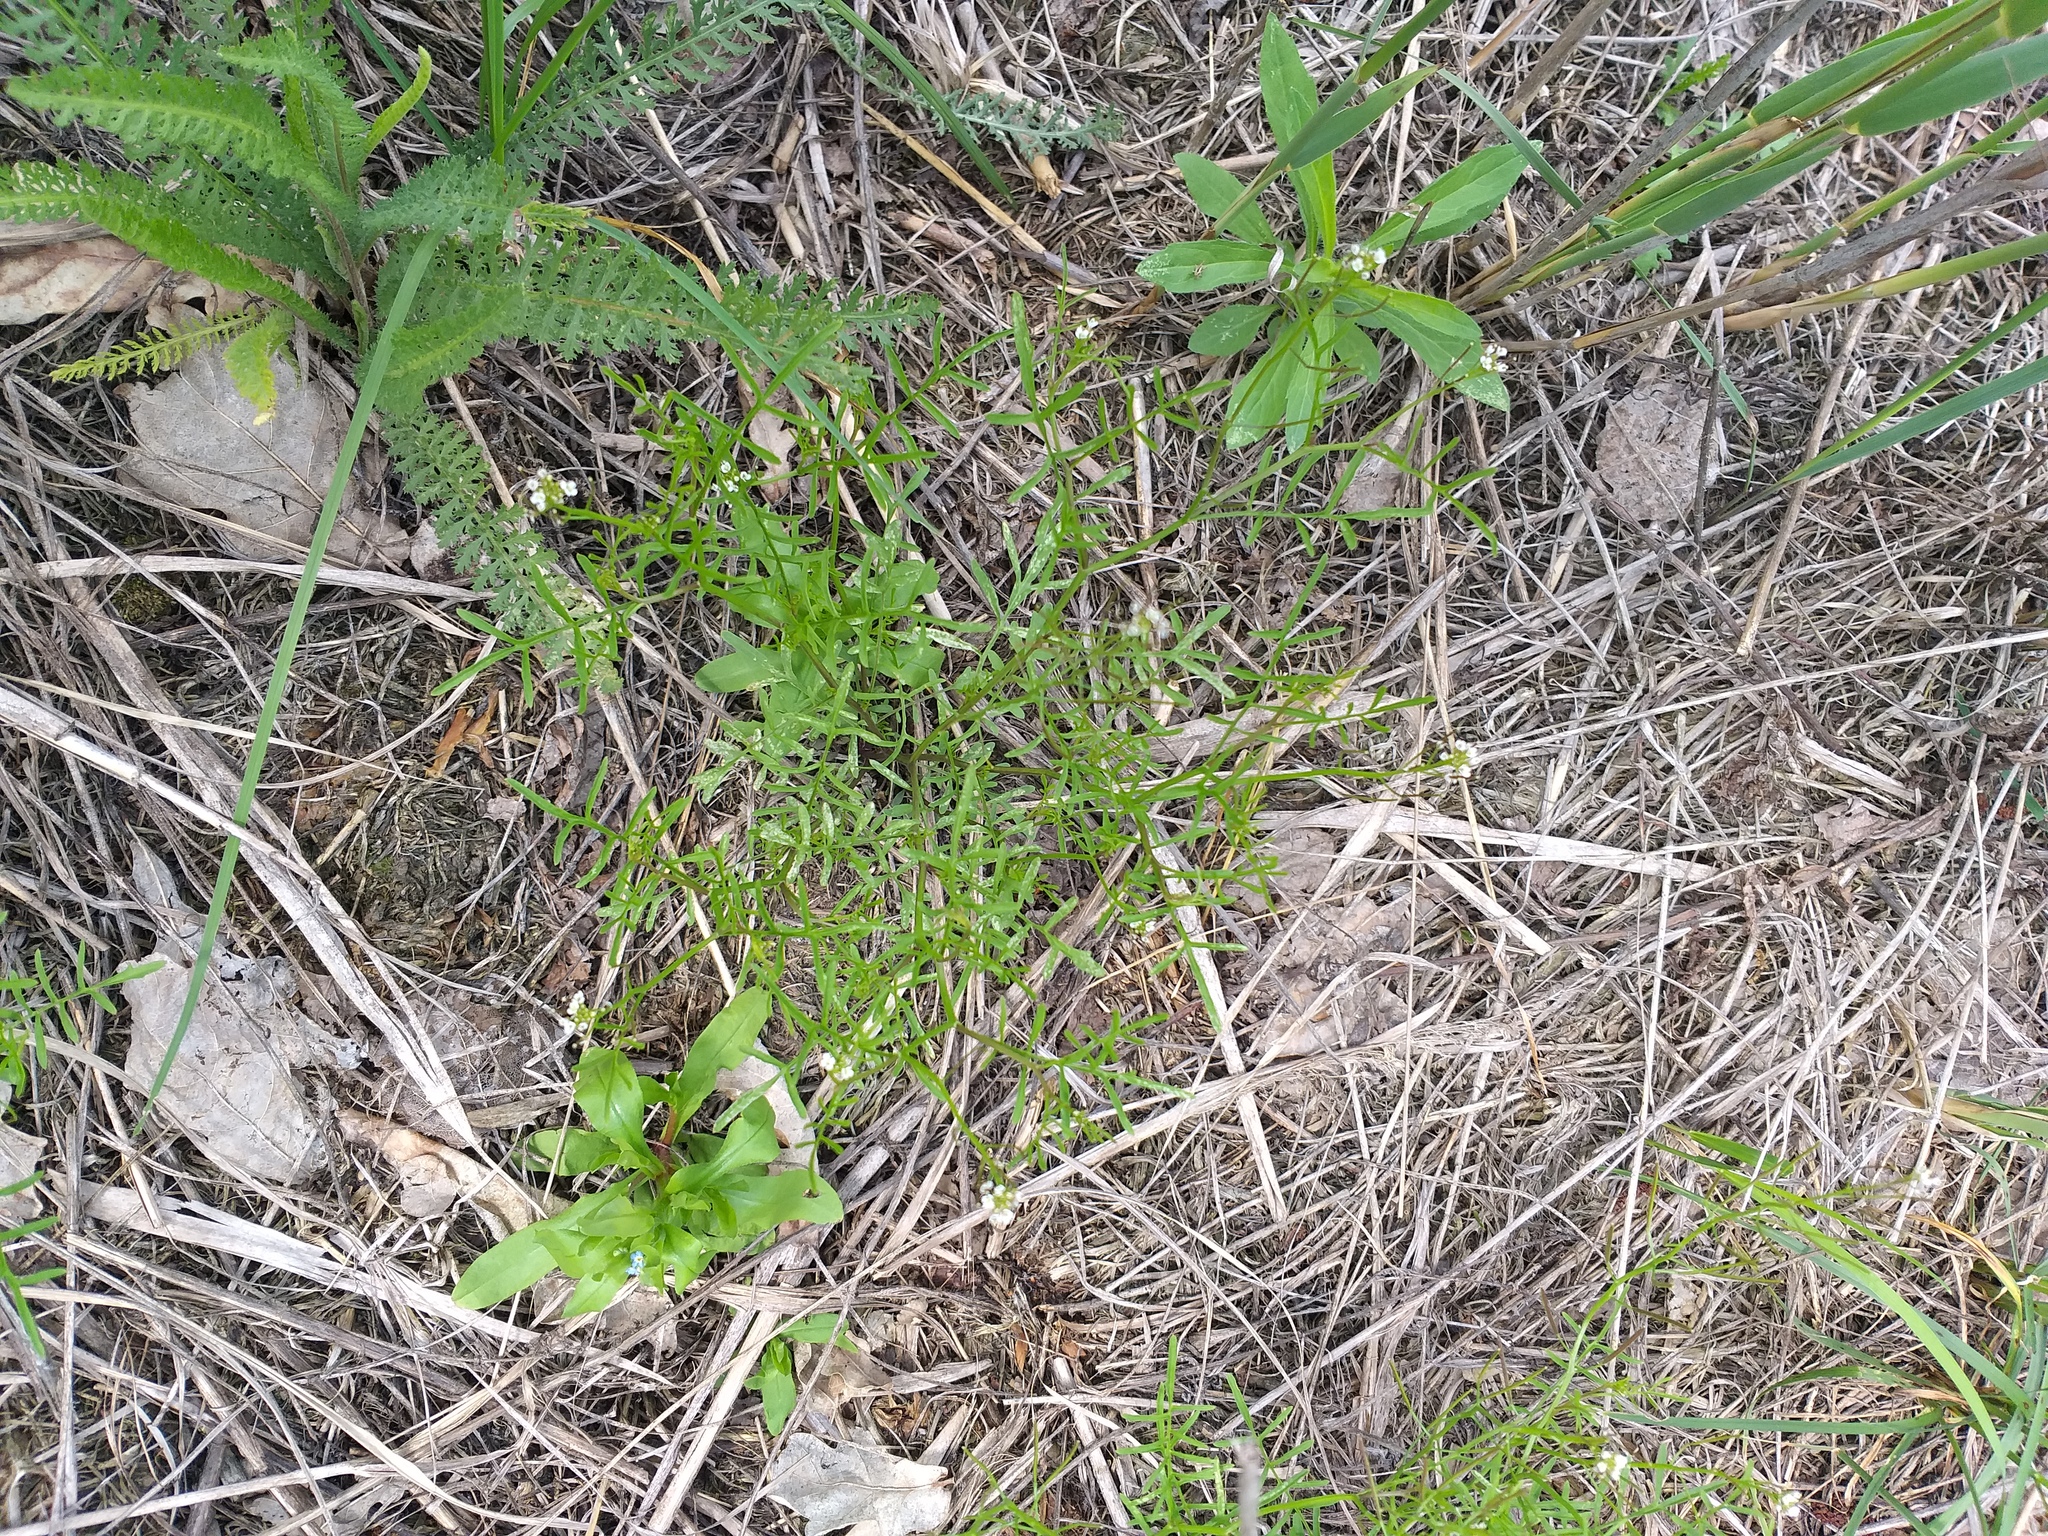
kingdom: Plantae
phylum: Tracheophyta
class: Magnoliopsida
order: Brassicales
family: Brassicaceae
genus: Cardamine
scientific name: Cardamine parviflora
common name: Sand bittercress
